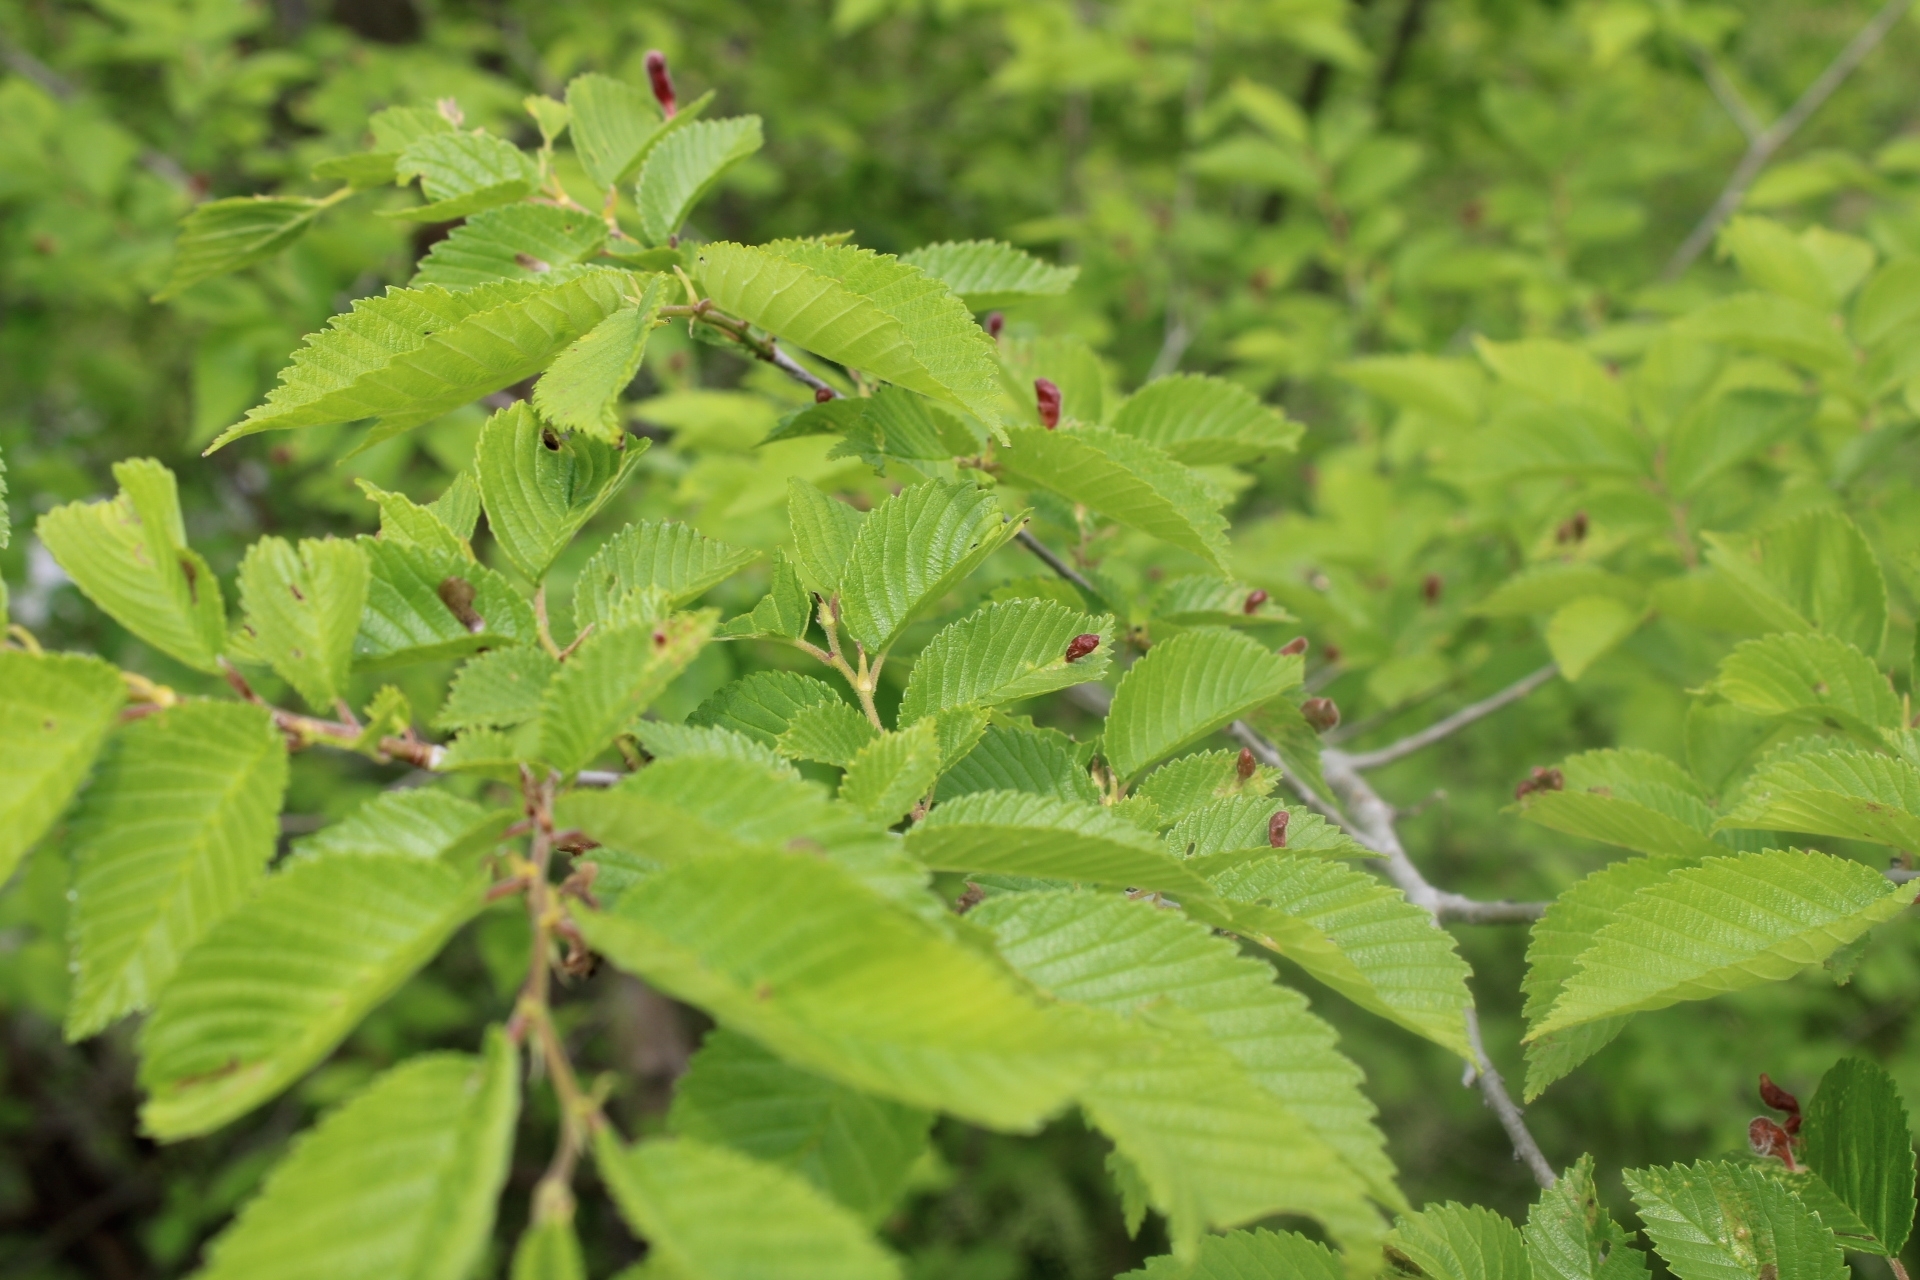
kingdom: Animalia
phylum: Arthropoda
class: Insecta
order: Hemiptera
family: Aphididae
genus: Tetraneura
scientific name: Tetraneura nigriabdominalis
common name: Aphid
